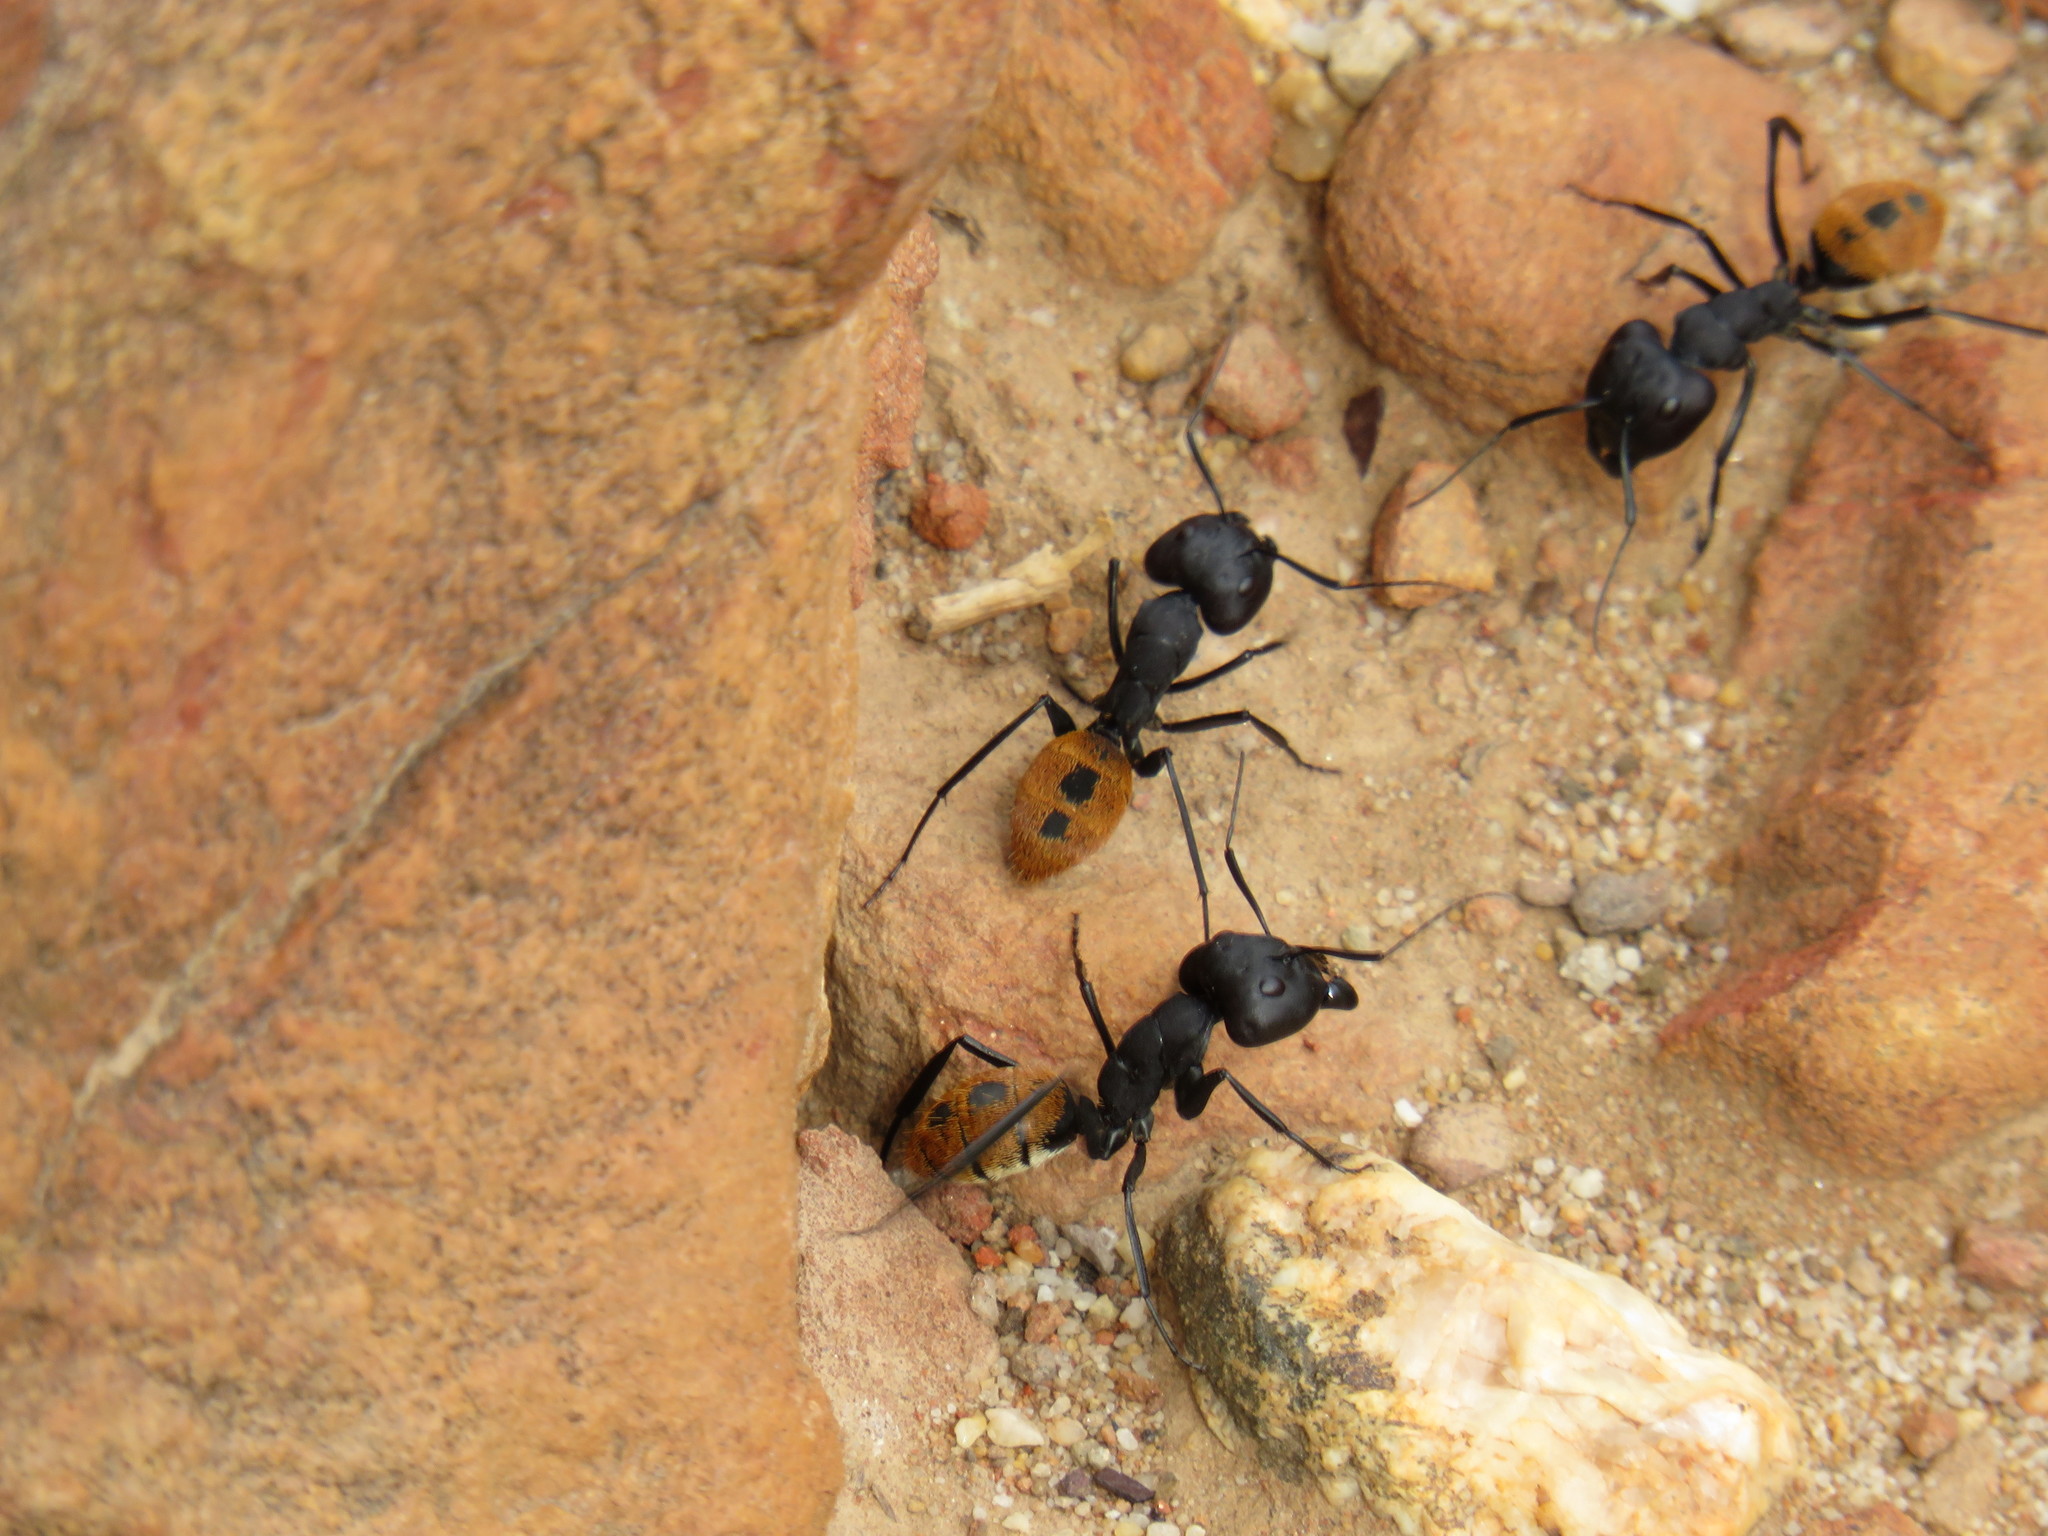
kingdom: Animalia
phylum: Arthropoda
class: Insecta
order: Hymenoptera
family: Formicidae
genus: Camponotus
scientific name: Camponotus fulvopilosus
